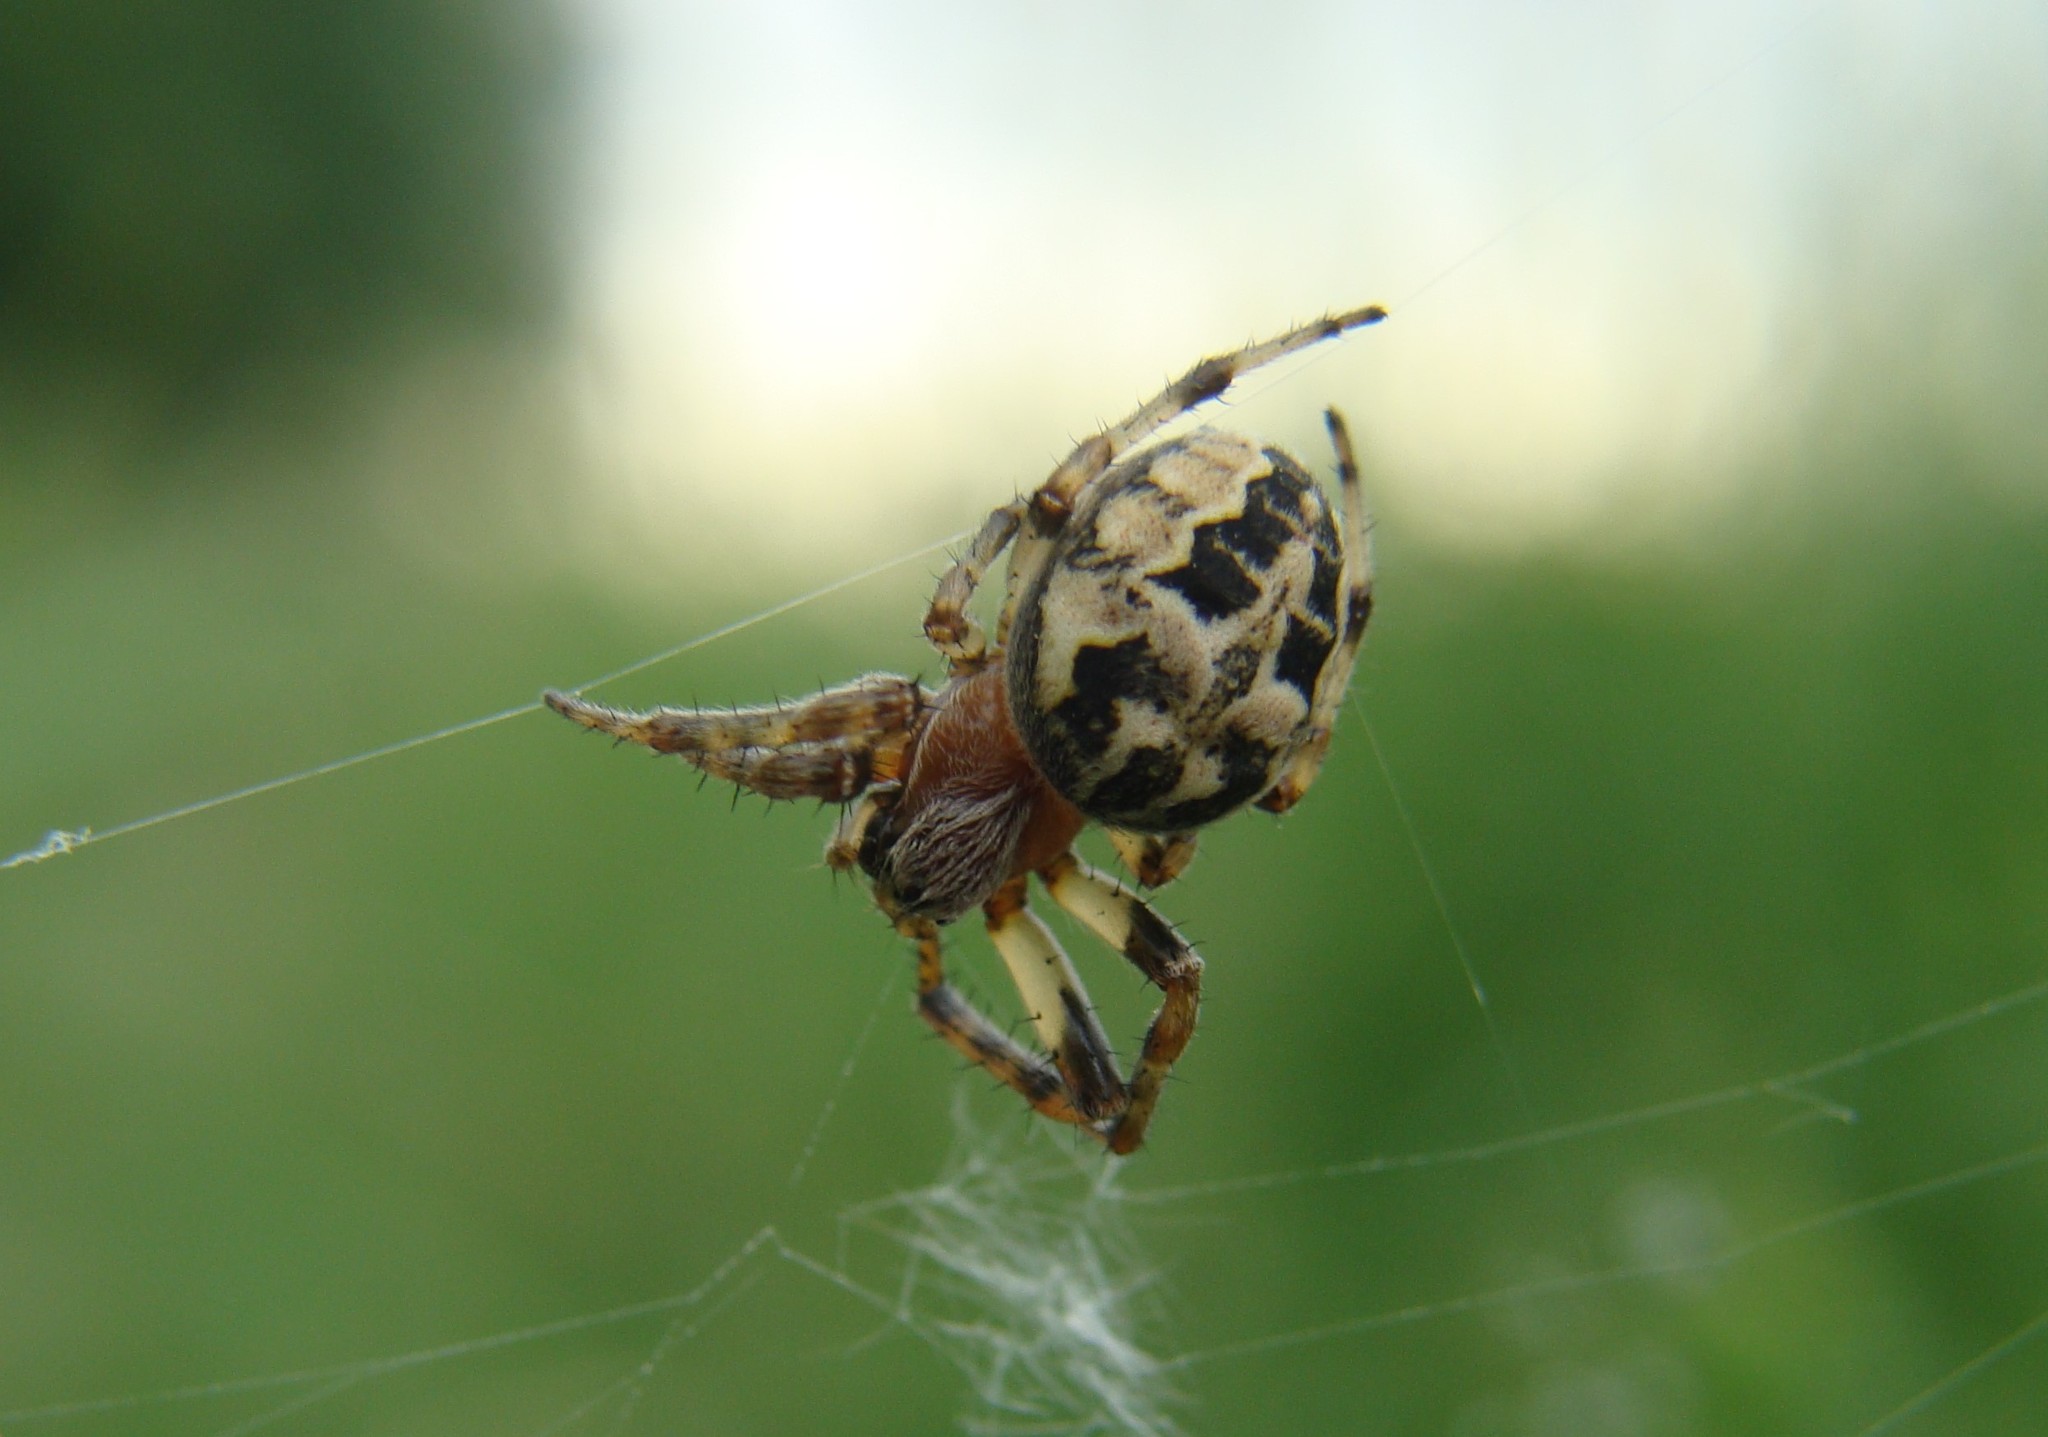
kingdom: Animalia
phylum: Arthropoda
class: Arachnida
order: Araneae
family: Araneidae
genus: Larinioides
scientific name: Larinioides cornutus
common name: Furrow orbweaver
